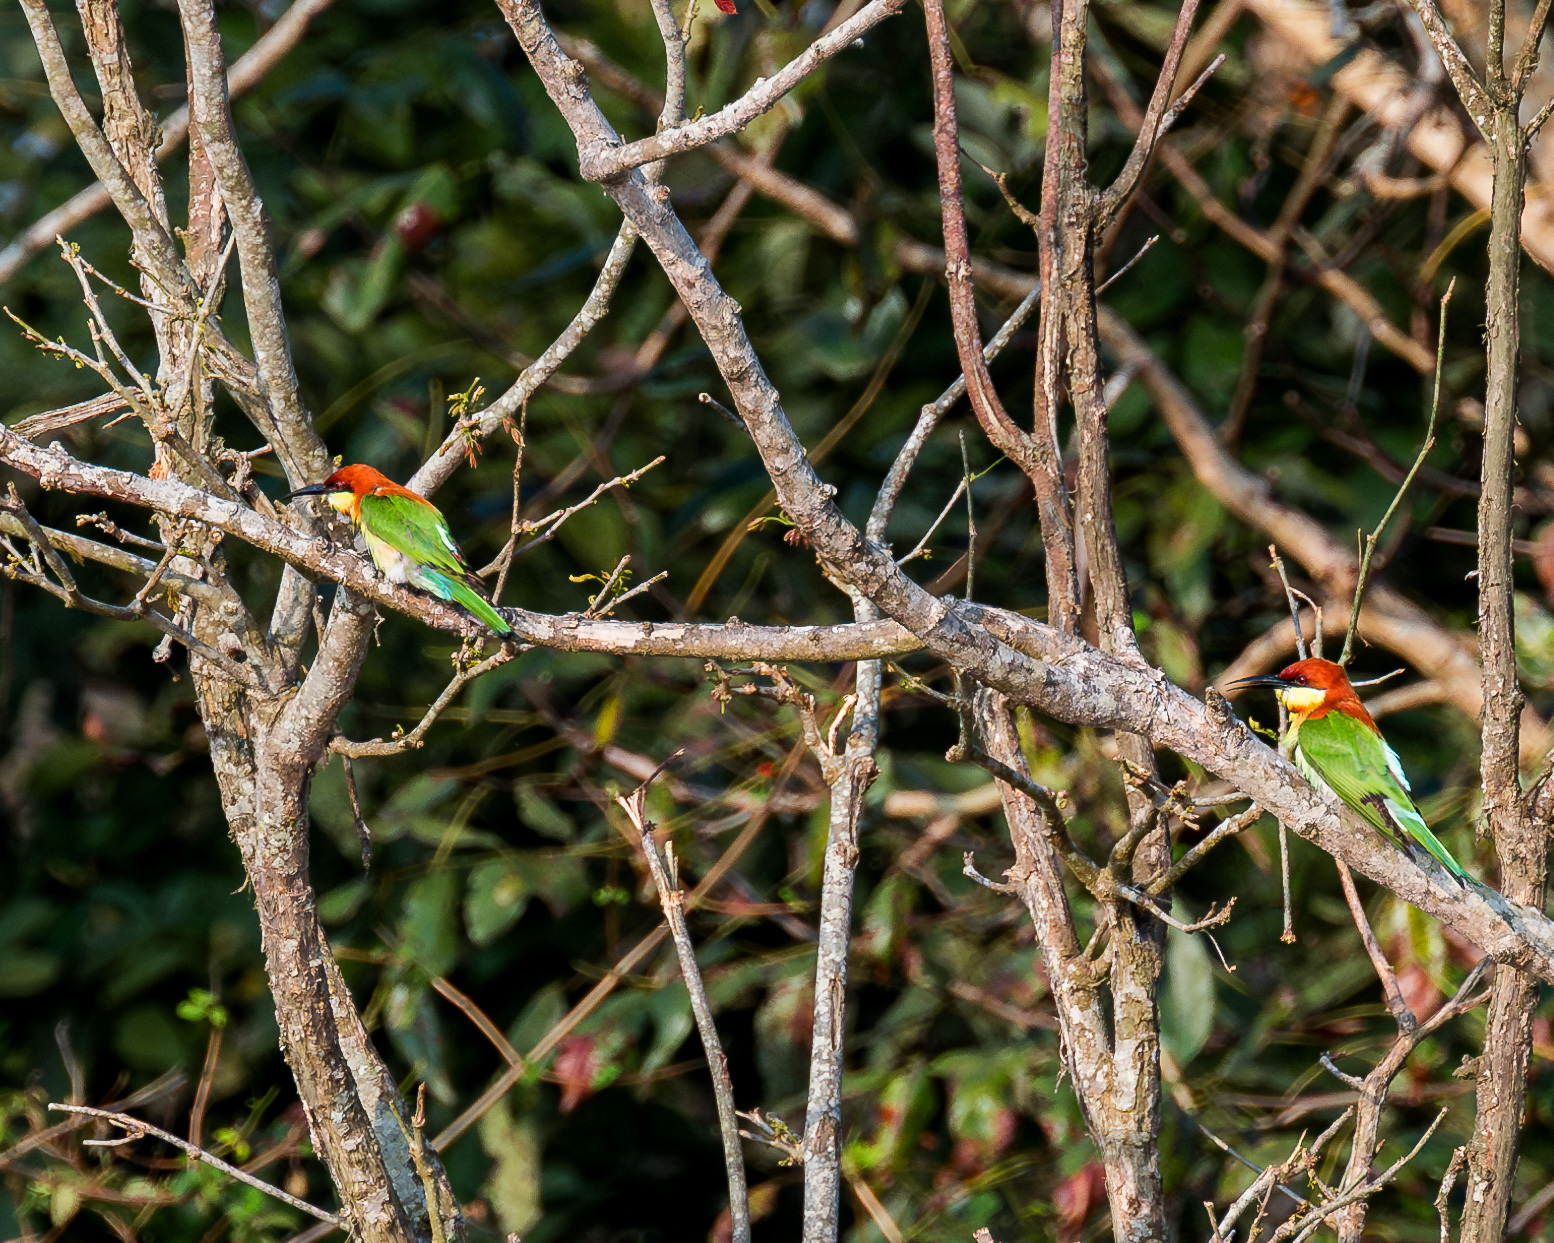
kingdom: Animalia
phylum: Chordata
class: Aves
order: Coraciiformes
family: Meropidae
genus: Merops
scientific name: Merops leschenaulti
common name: Chestnut-headed bee-eater
